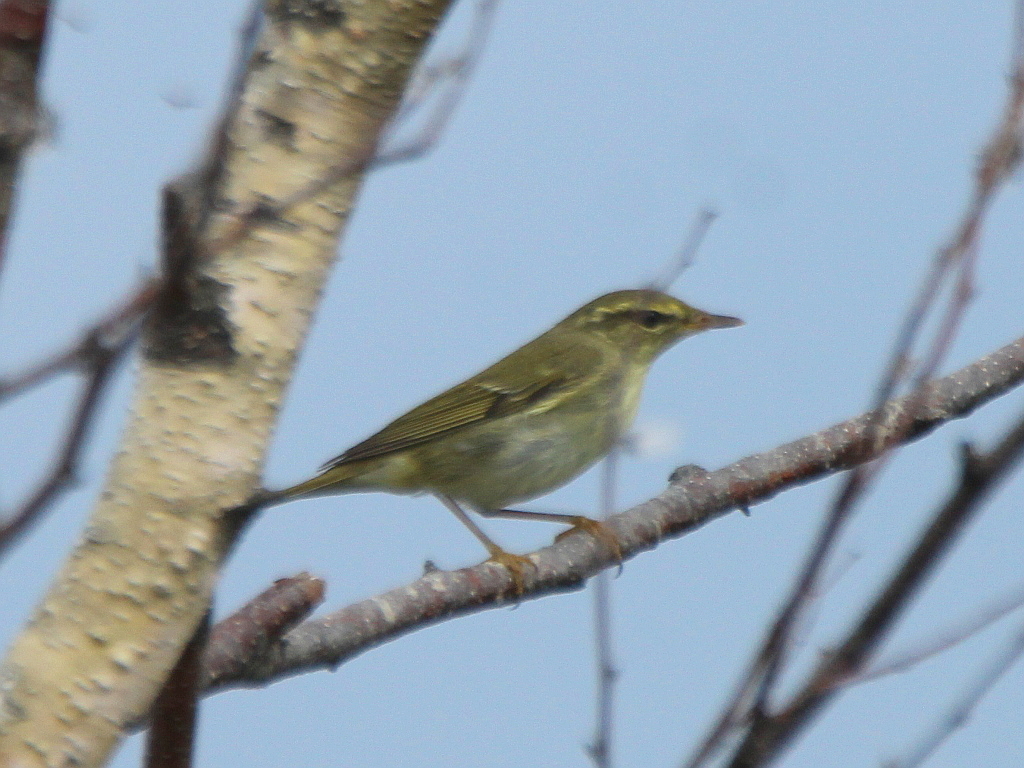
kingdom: Animalia
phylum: Chordata
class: Aves
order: Passeriformes
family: Phylloscopidae
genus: Phylloscopus
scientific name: Phylloscopus borealis
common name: Arctic warbler
